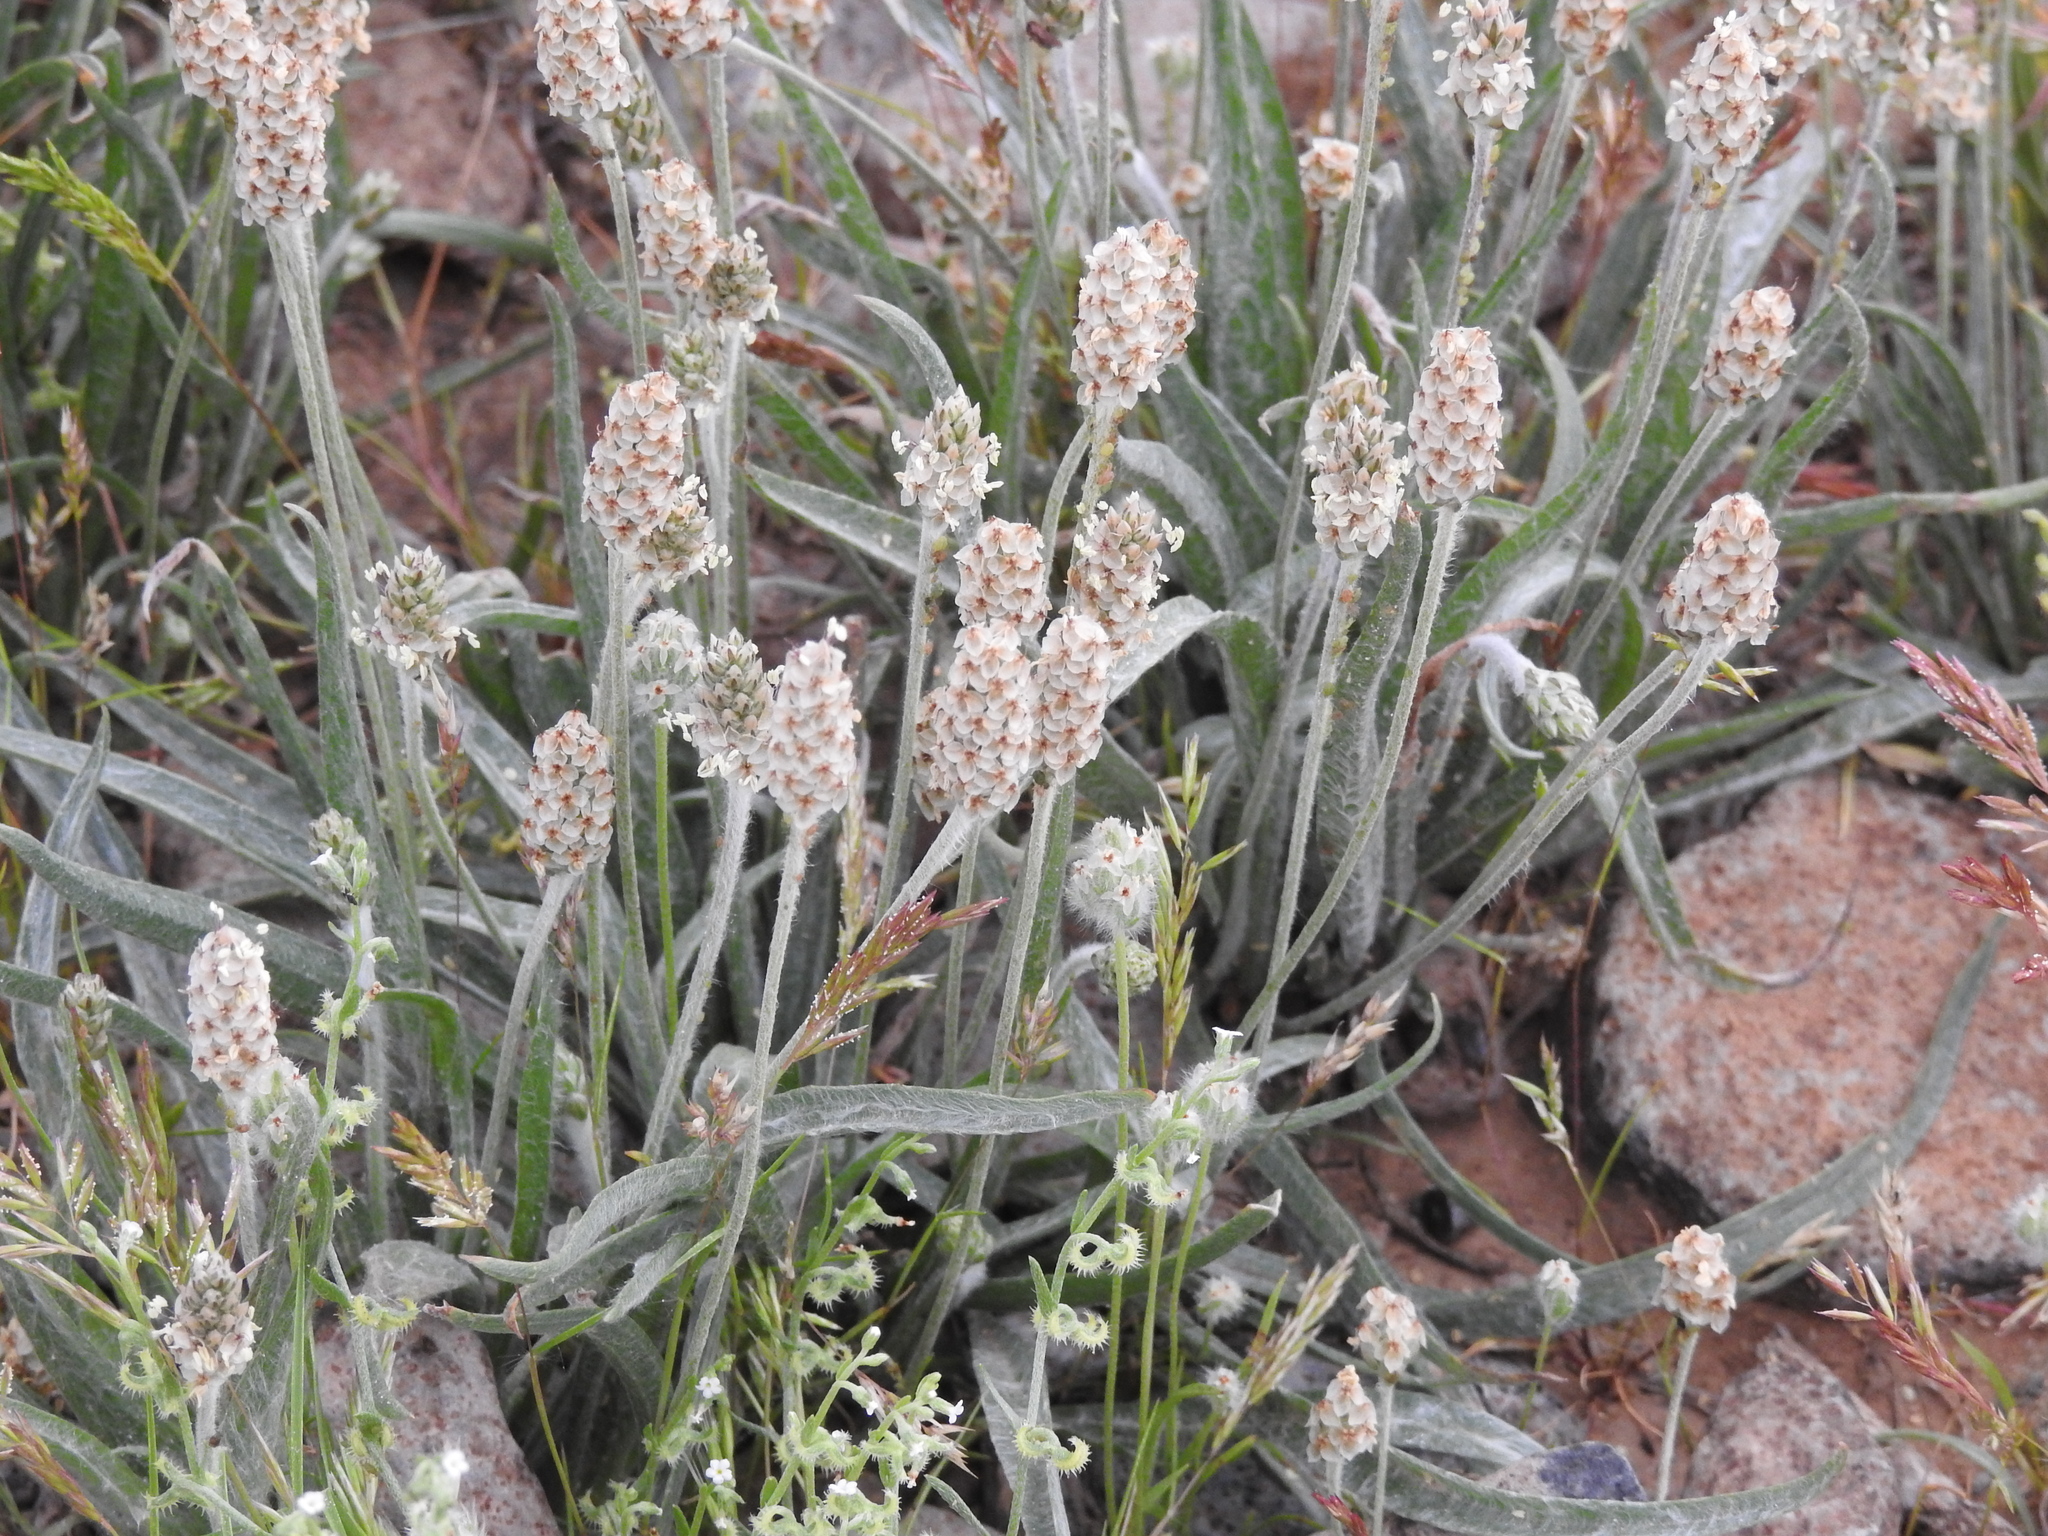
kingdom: Plantae
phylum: Tracheophyta
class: Magnoliopsida
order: Lamiales
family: Plantaginaceae
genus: Plantago
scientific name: Plantago ovata
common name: Blond plantain
